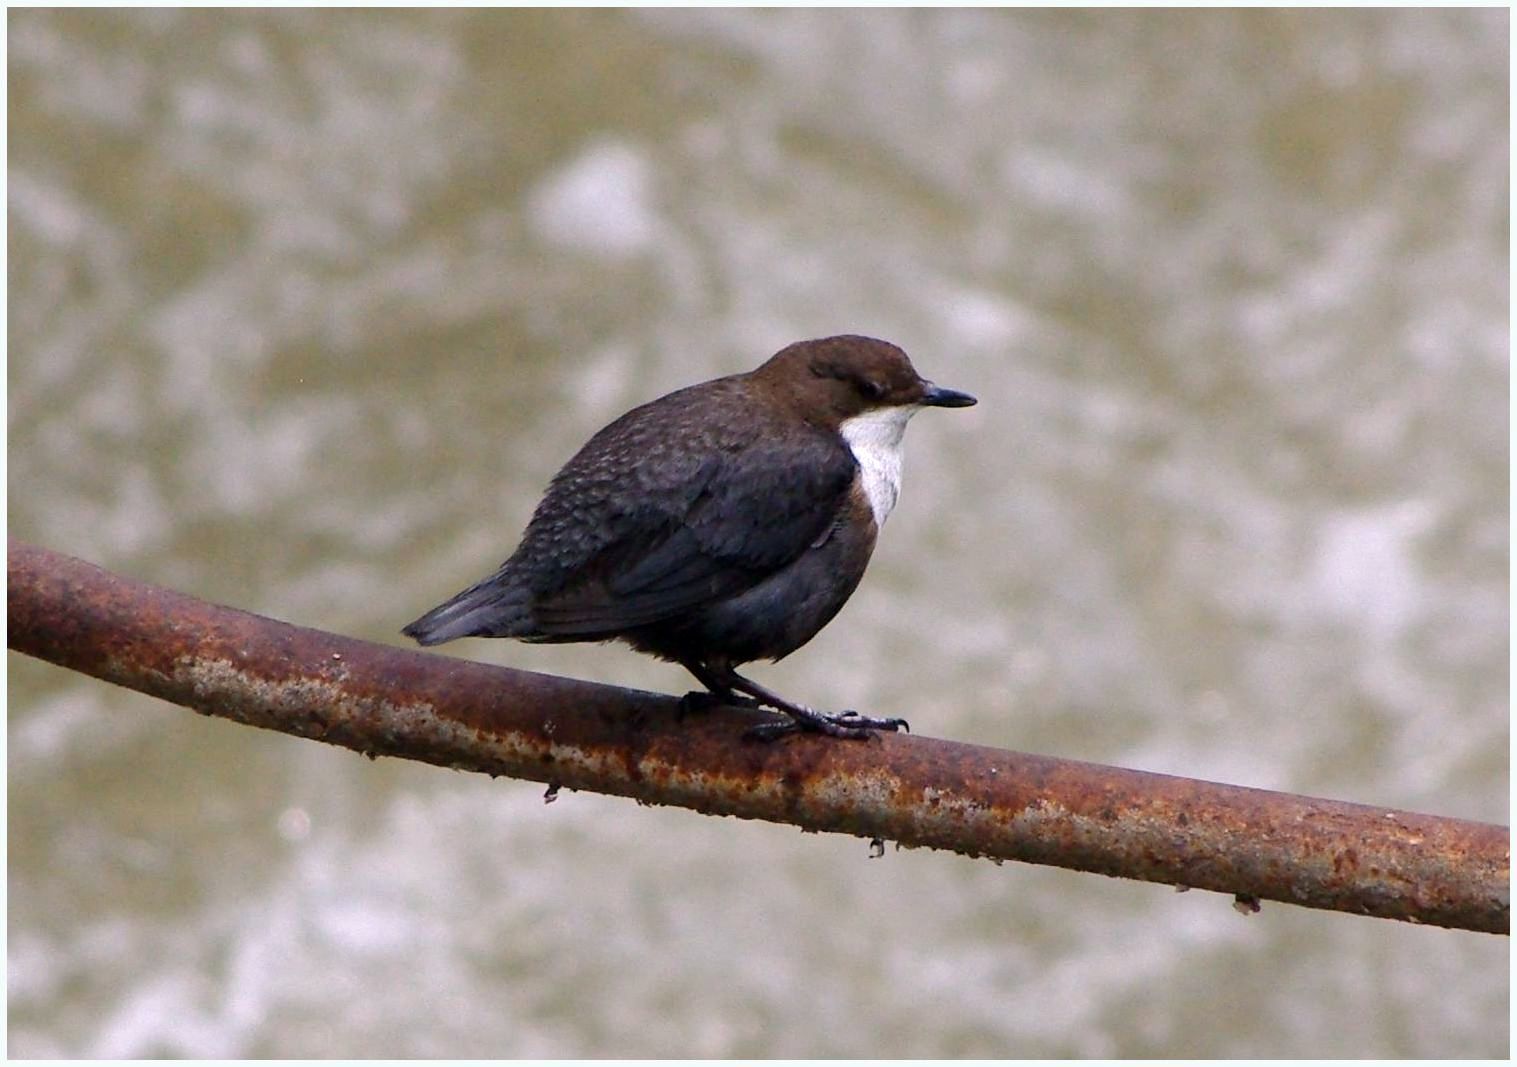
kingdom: Animalia
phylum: Chordata
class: Aves
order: Passeriformes
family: Cinclidae
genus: Cinclus
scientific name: Cinclus cinclus
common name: White-throated dipper
